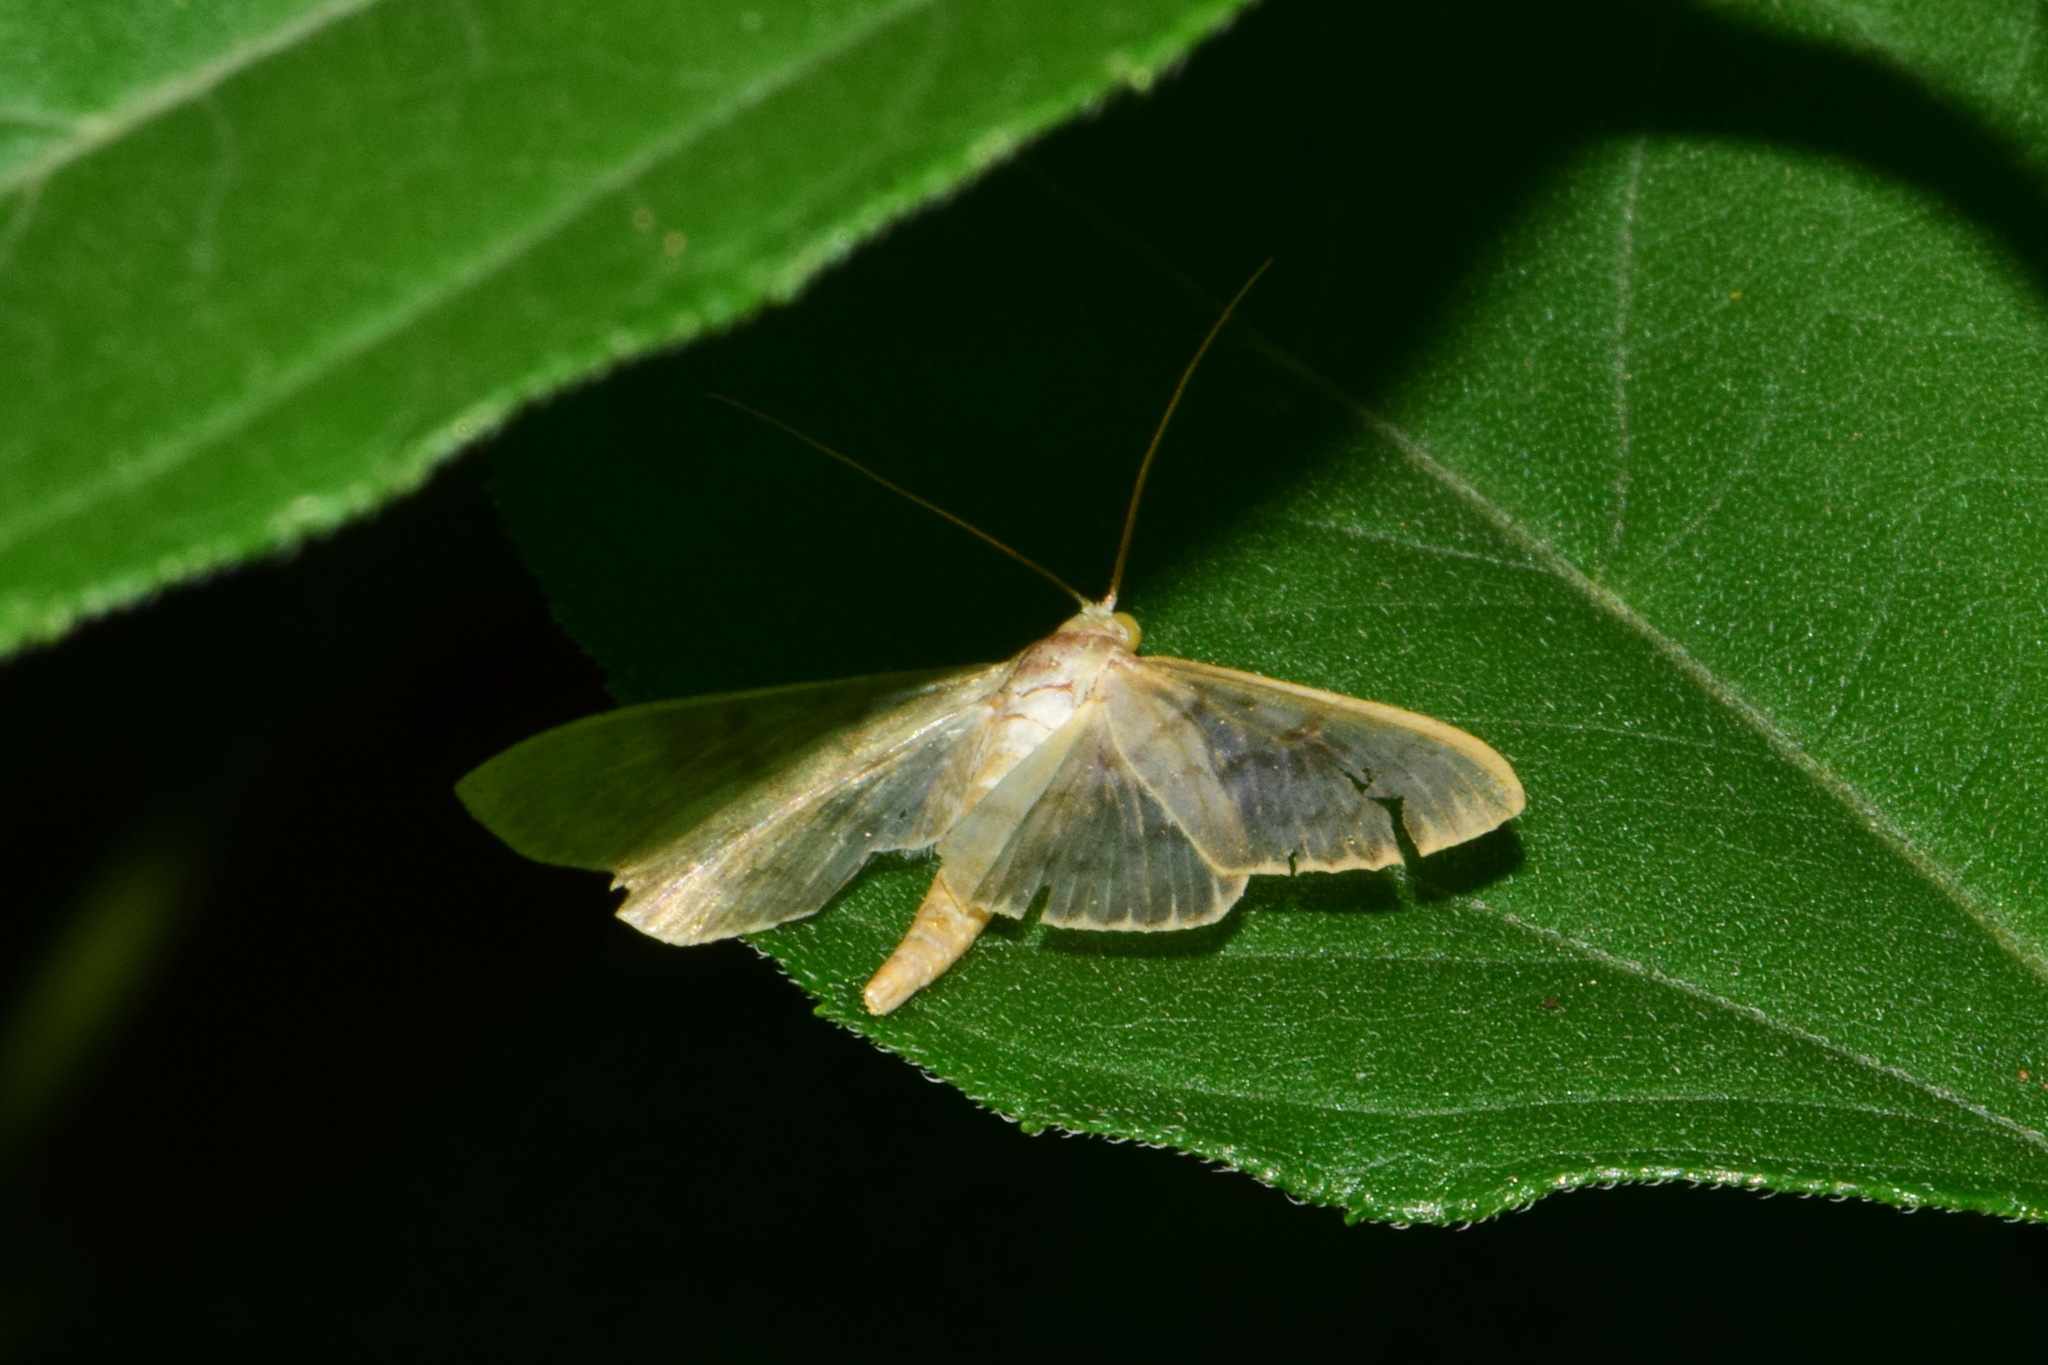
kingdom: Animalia
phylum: Arthropoda
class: Insecta
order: Lepidoptera
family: Crambidae
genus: Patania
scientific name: Patania ruralis
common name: Mother of pearl
